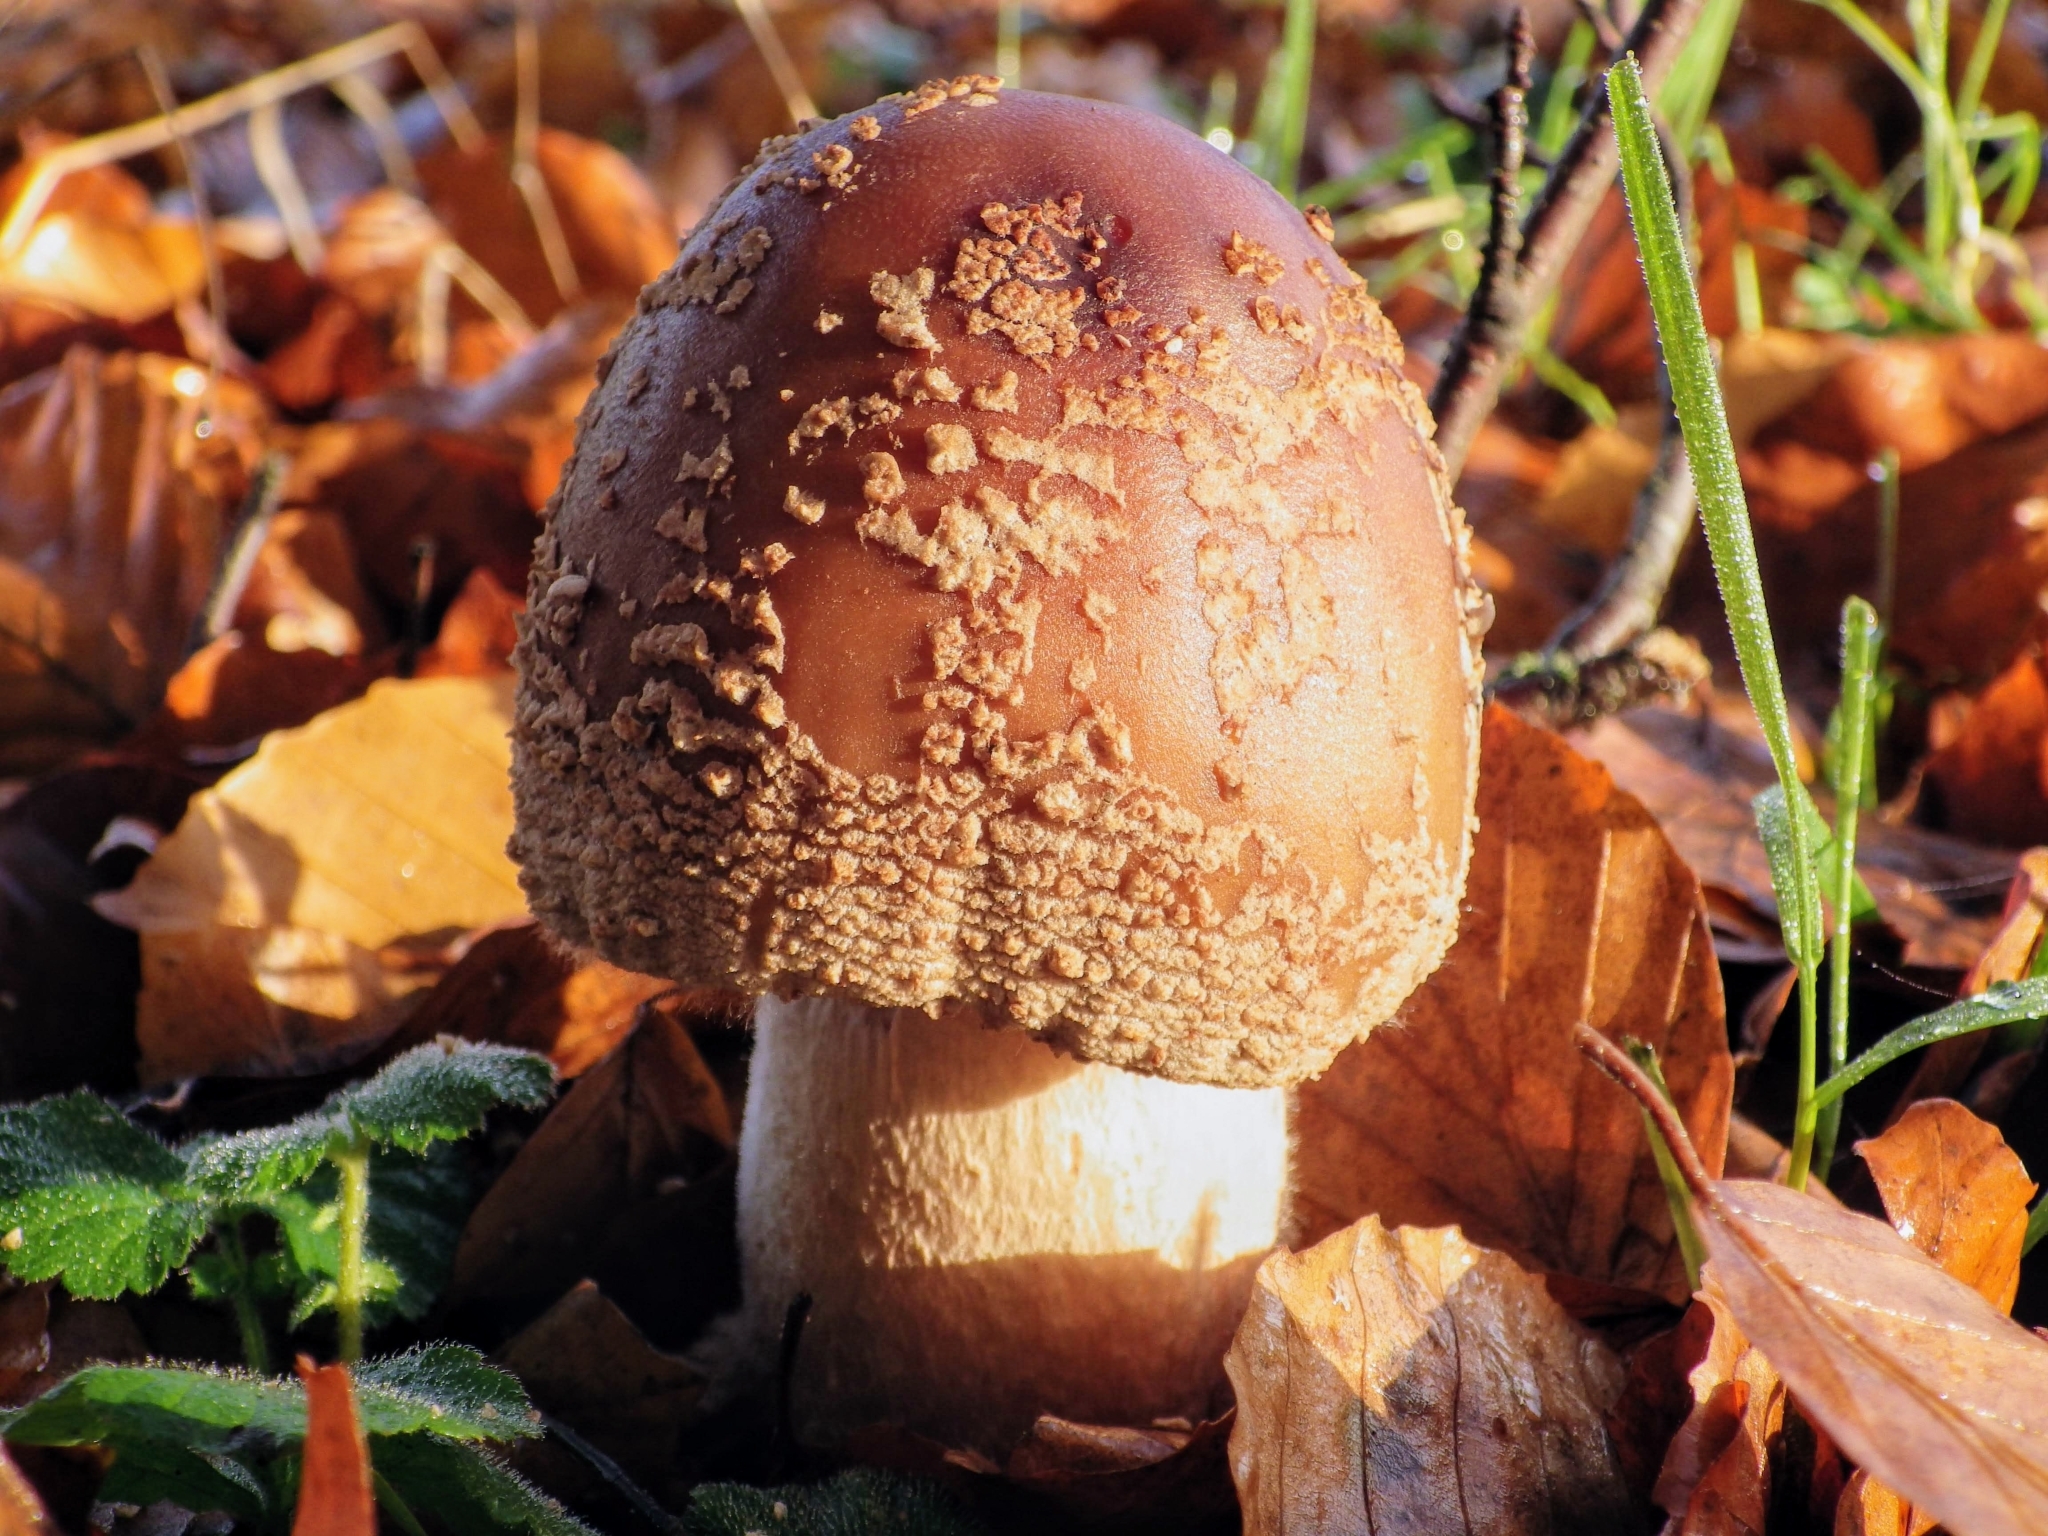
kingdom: Fungi
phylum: Basidiomycota
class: Agaricomycetes
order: Agaricales
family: Amanitaceae
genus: Amanita
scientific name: Amanita rubescens
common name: Blusher
